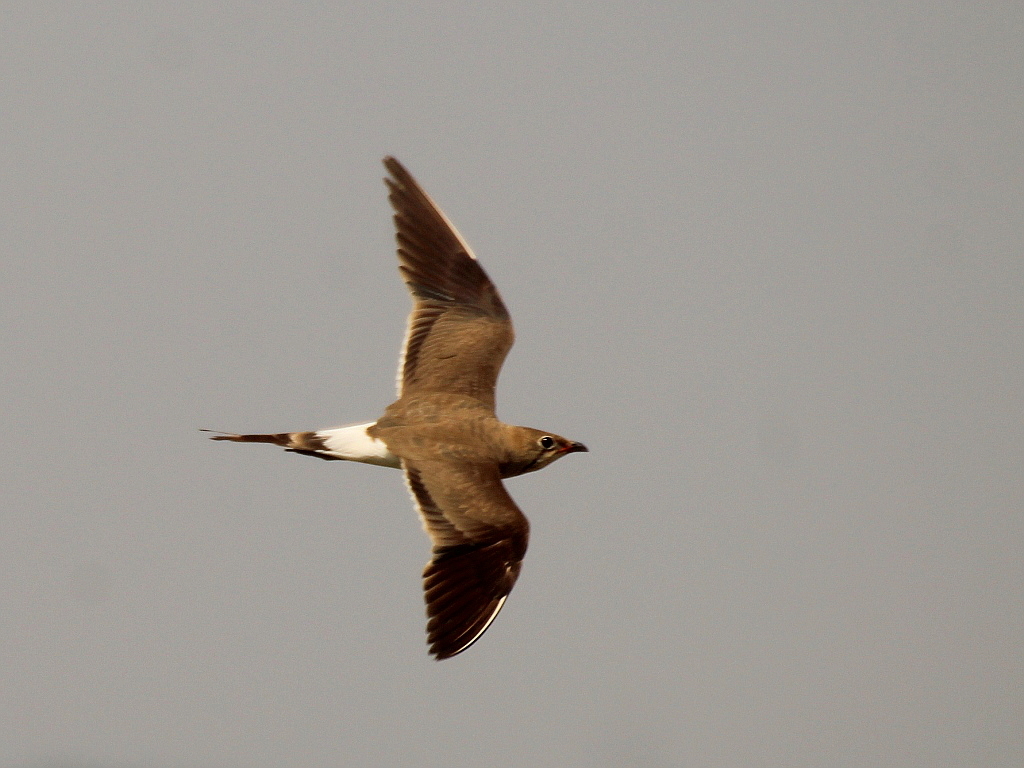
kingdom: Animalia
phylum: Chordata
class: Aves
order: Charadriiformes
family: Glareolidae
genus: Glareola
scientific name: Glareola pratincola
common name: Collared pratincole
